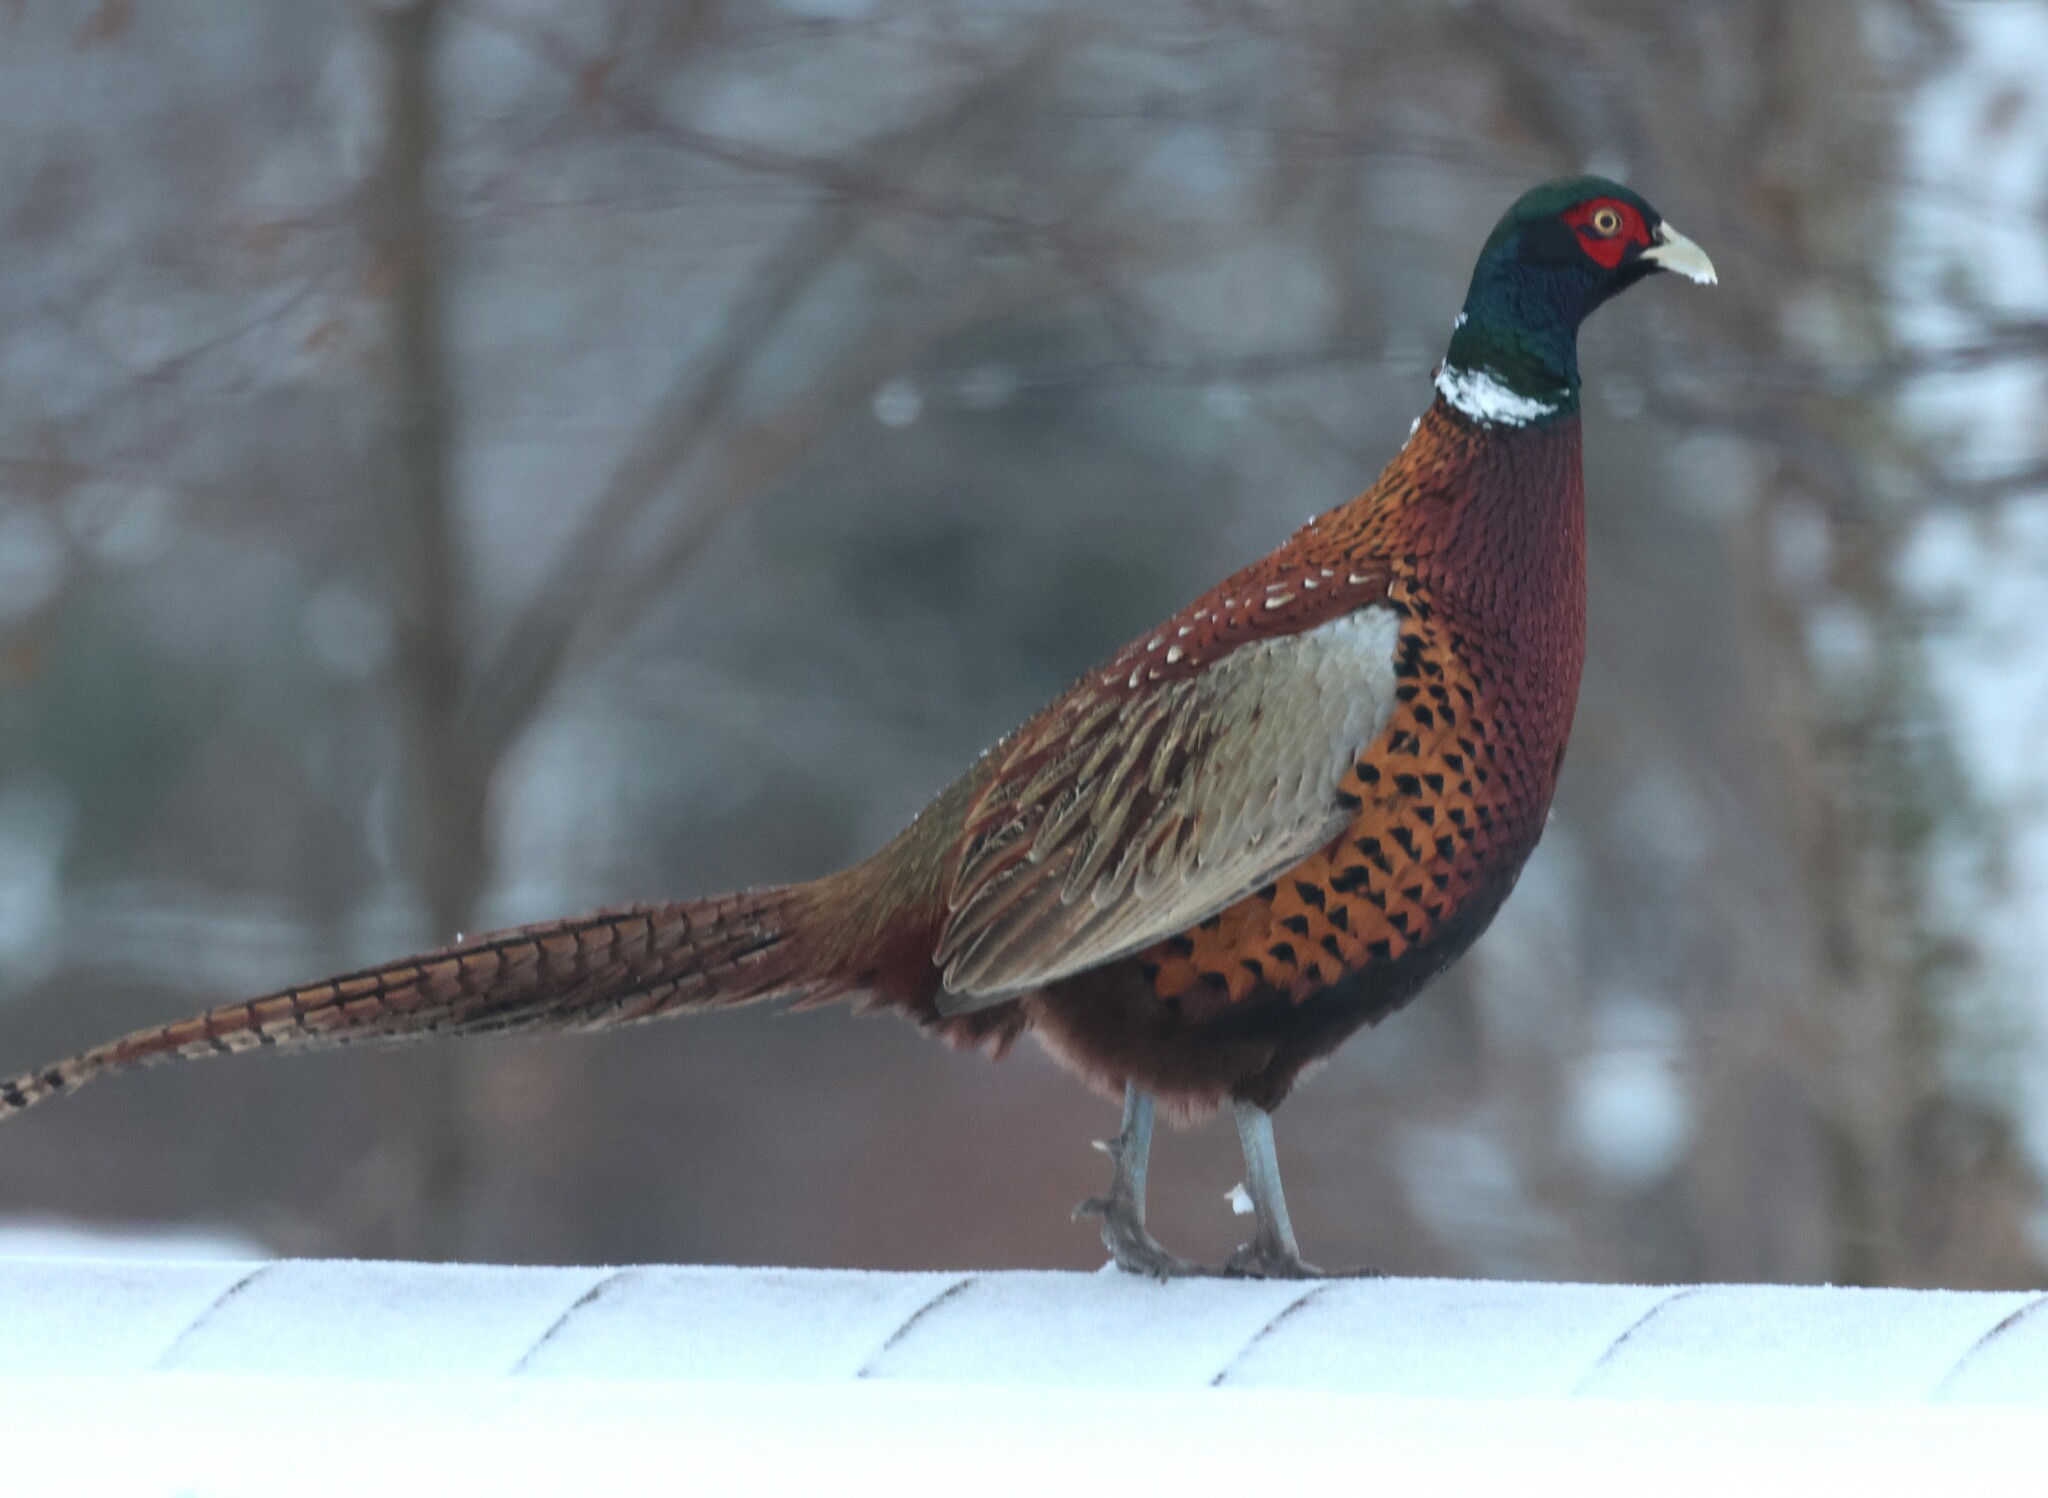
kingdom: Animalia
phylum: Chordata
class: Aves
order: Galliformes
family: Phasianidae
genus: Phasianus
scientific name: Phasianus colchicus
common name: Common pheasant
